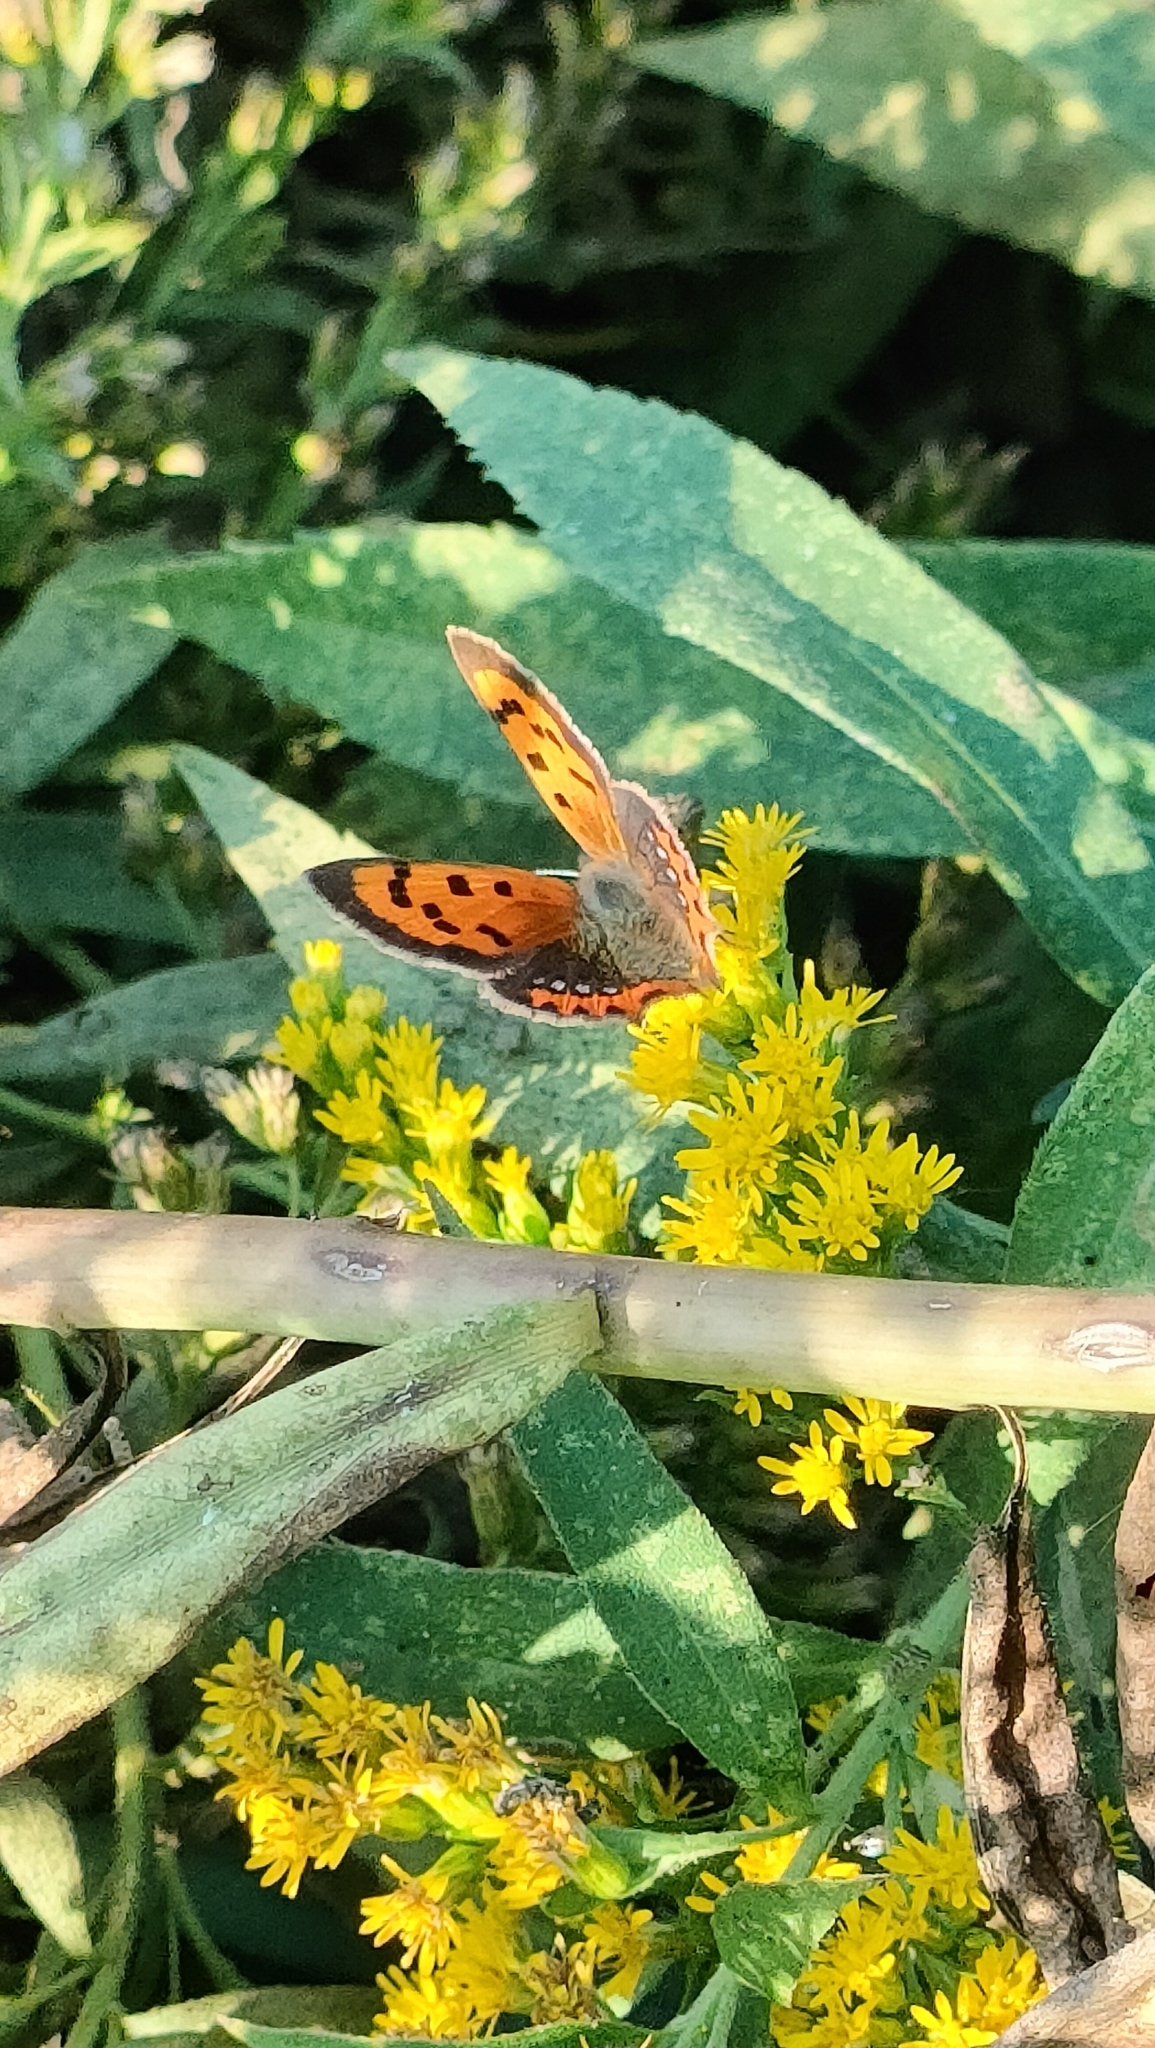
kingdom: Animalia
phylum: Arthropoda
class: Insecta
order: Lepidoptera
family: Lycaenidae
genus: Lycaena
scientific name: Lycaena phlaeas
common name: Small copper
